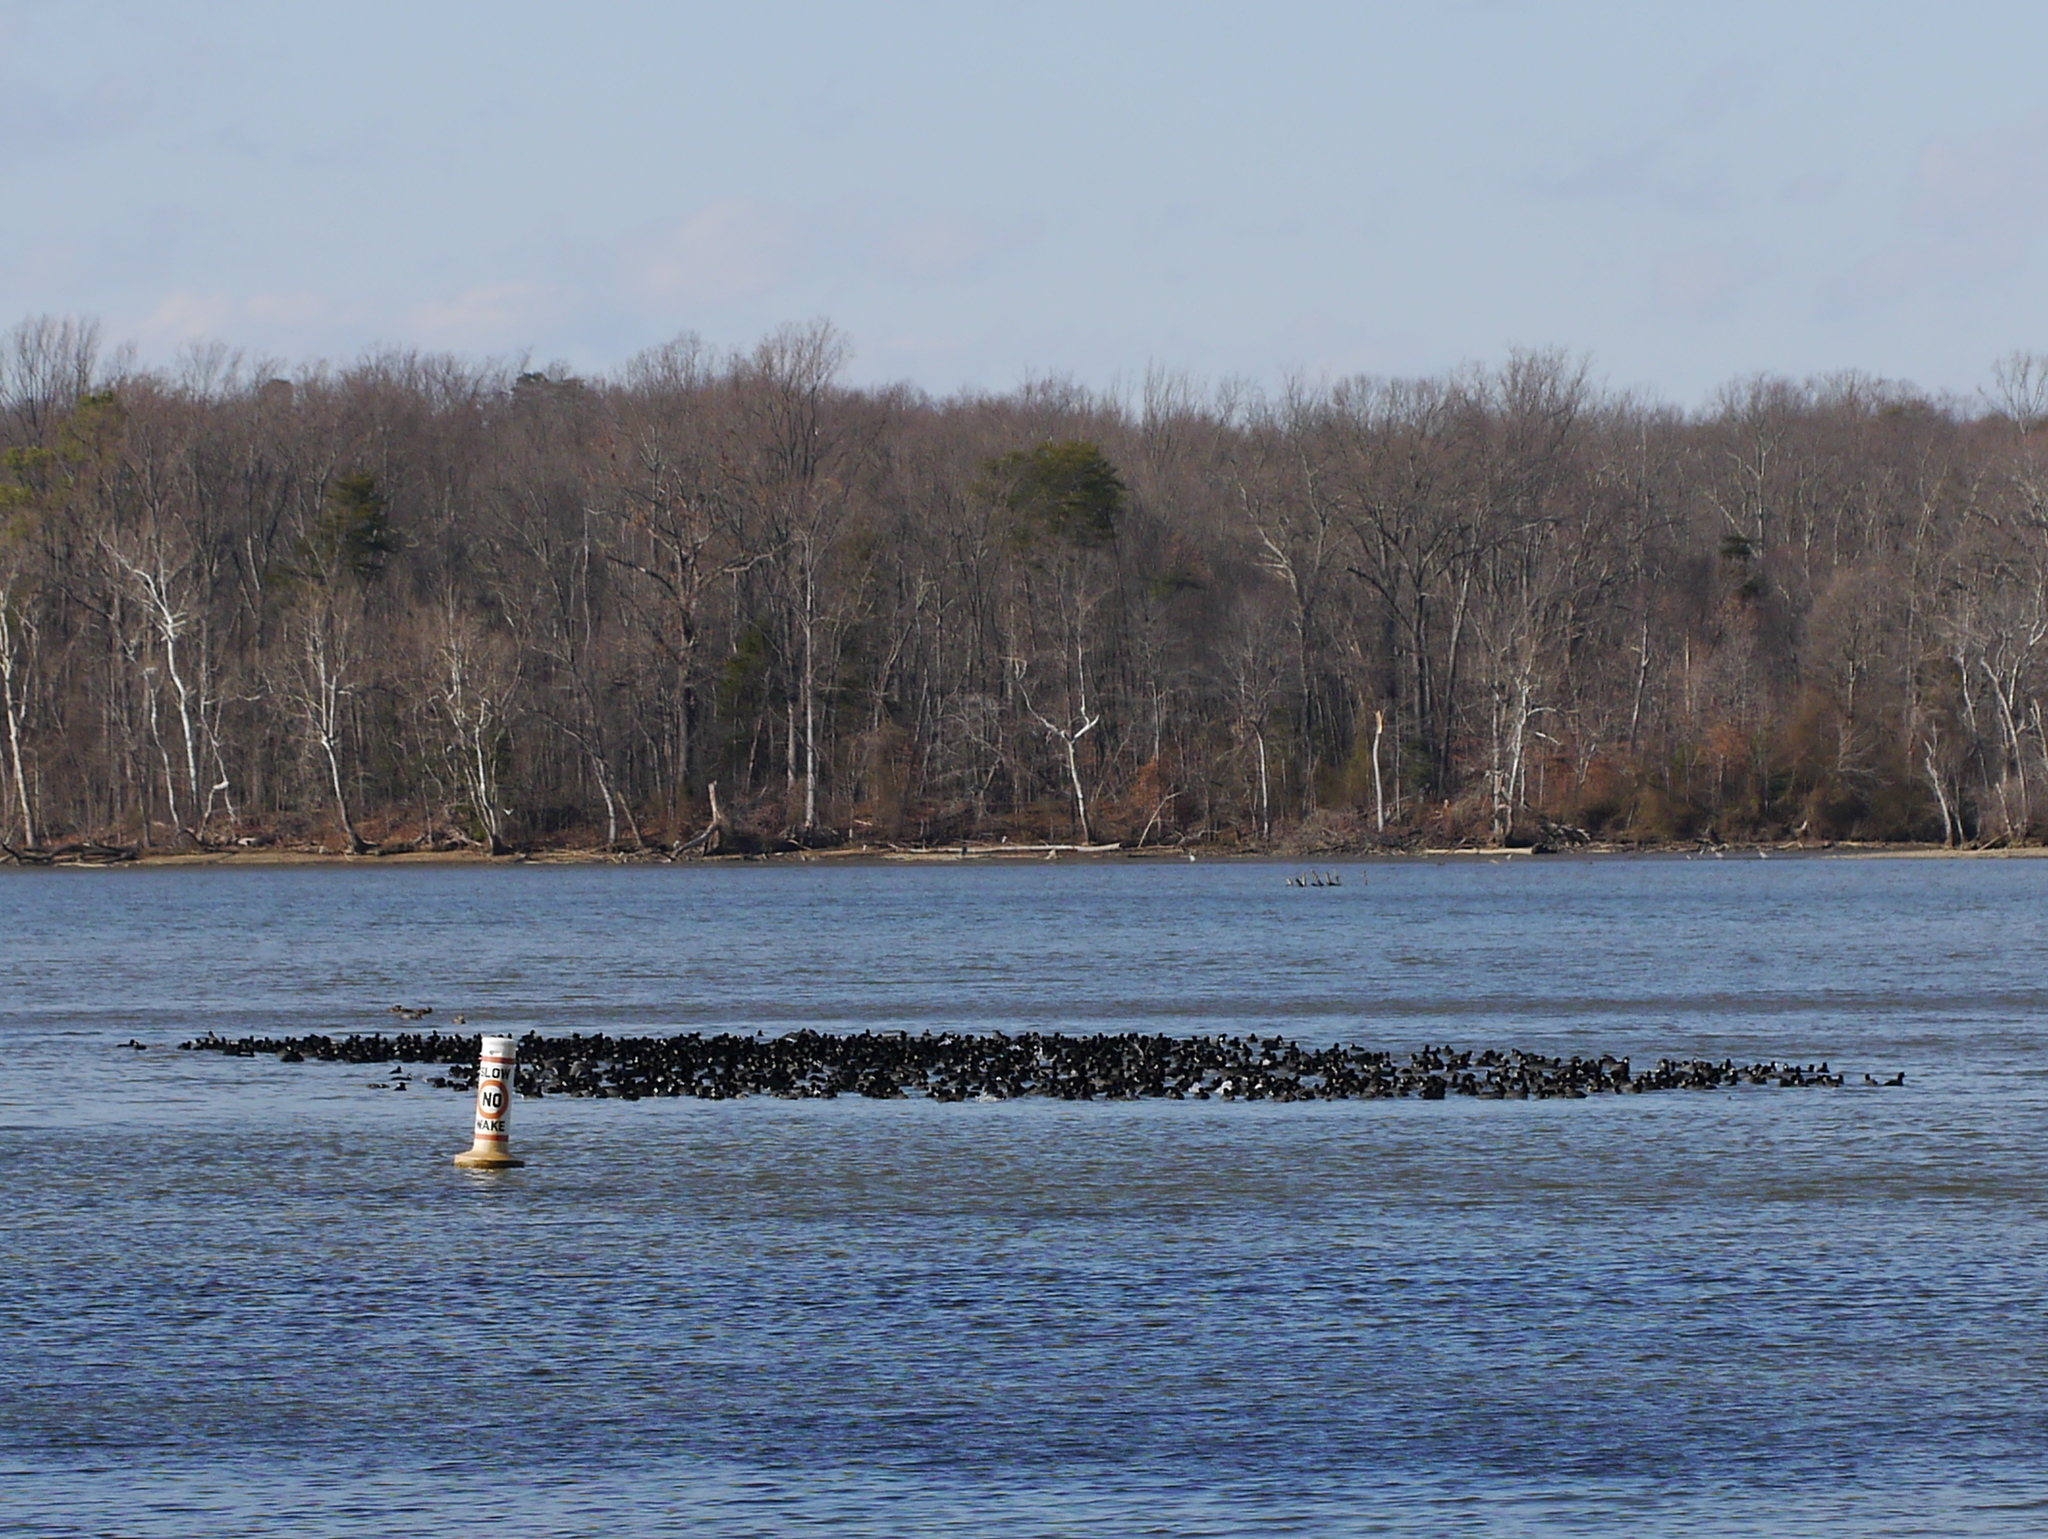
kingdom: Animalia
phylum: Chordata
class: Aves
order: Gruiformes
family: Rallidae
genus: Fulica
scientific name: Fulica americana
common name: American coot
